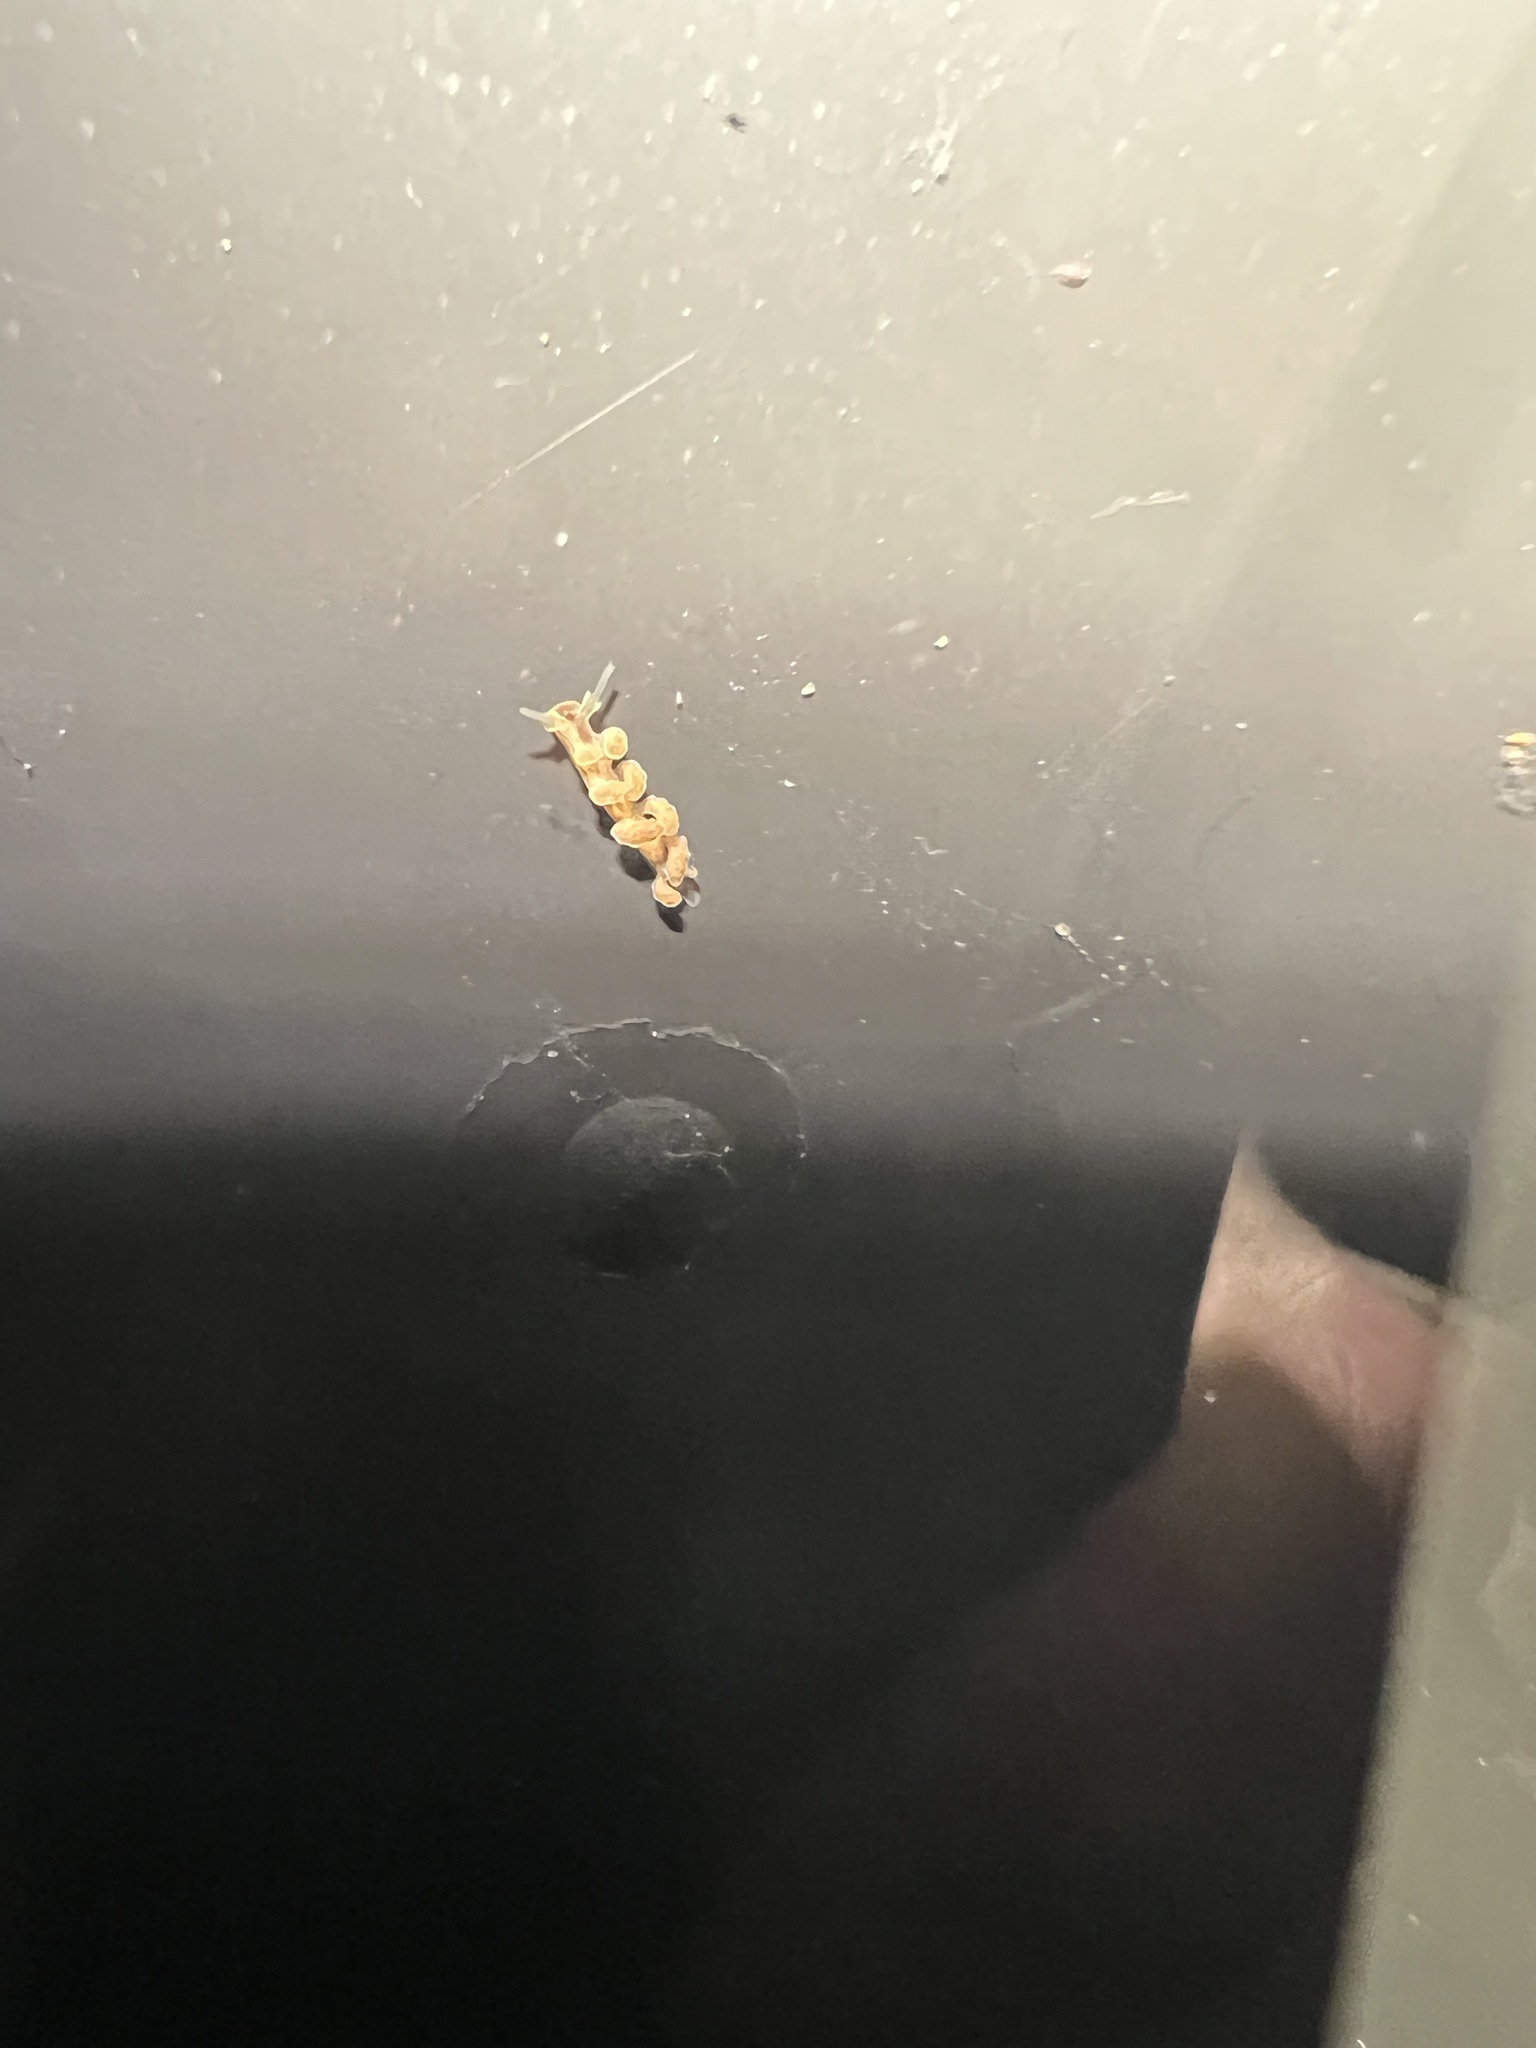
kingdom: Animalia
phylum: Mollusca
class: Gastropoda
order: Nudibranchia
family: Dotidae
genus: Doto
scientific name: Doto columbiana
